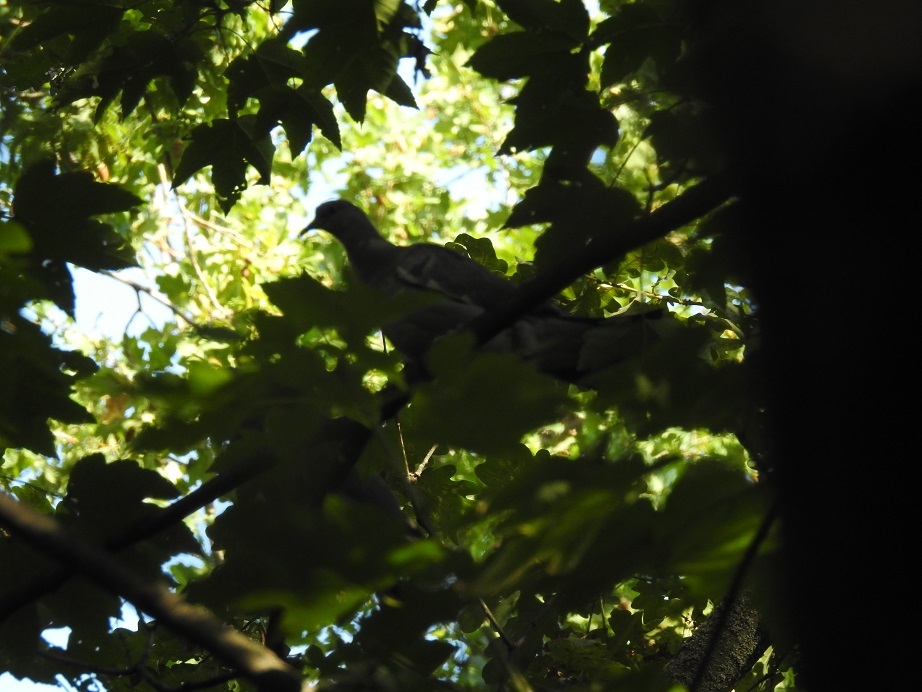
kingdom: Animalia
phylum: Chordata
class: Aves
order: Columbiformes
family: Columbidae
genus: Columba
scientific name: Columba palumbus
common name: Common wood pigeon
